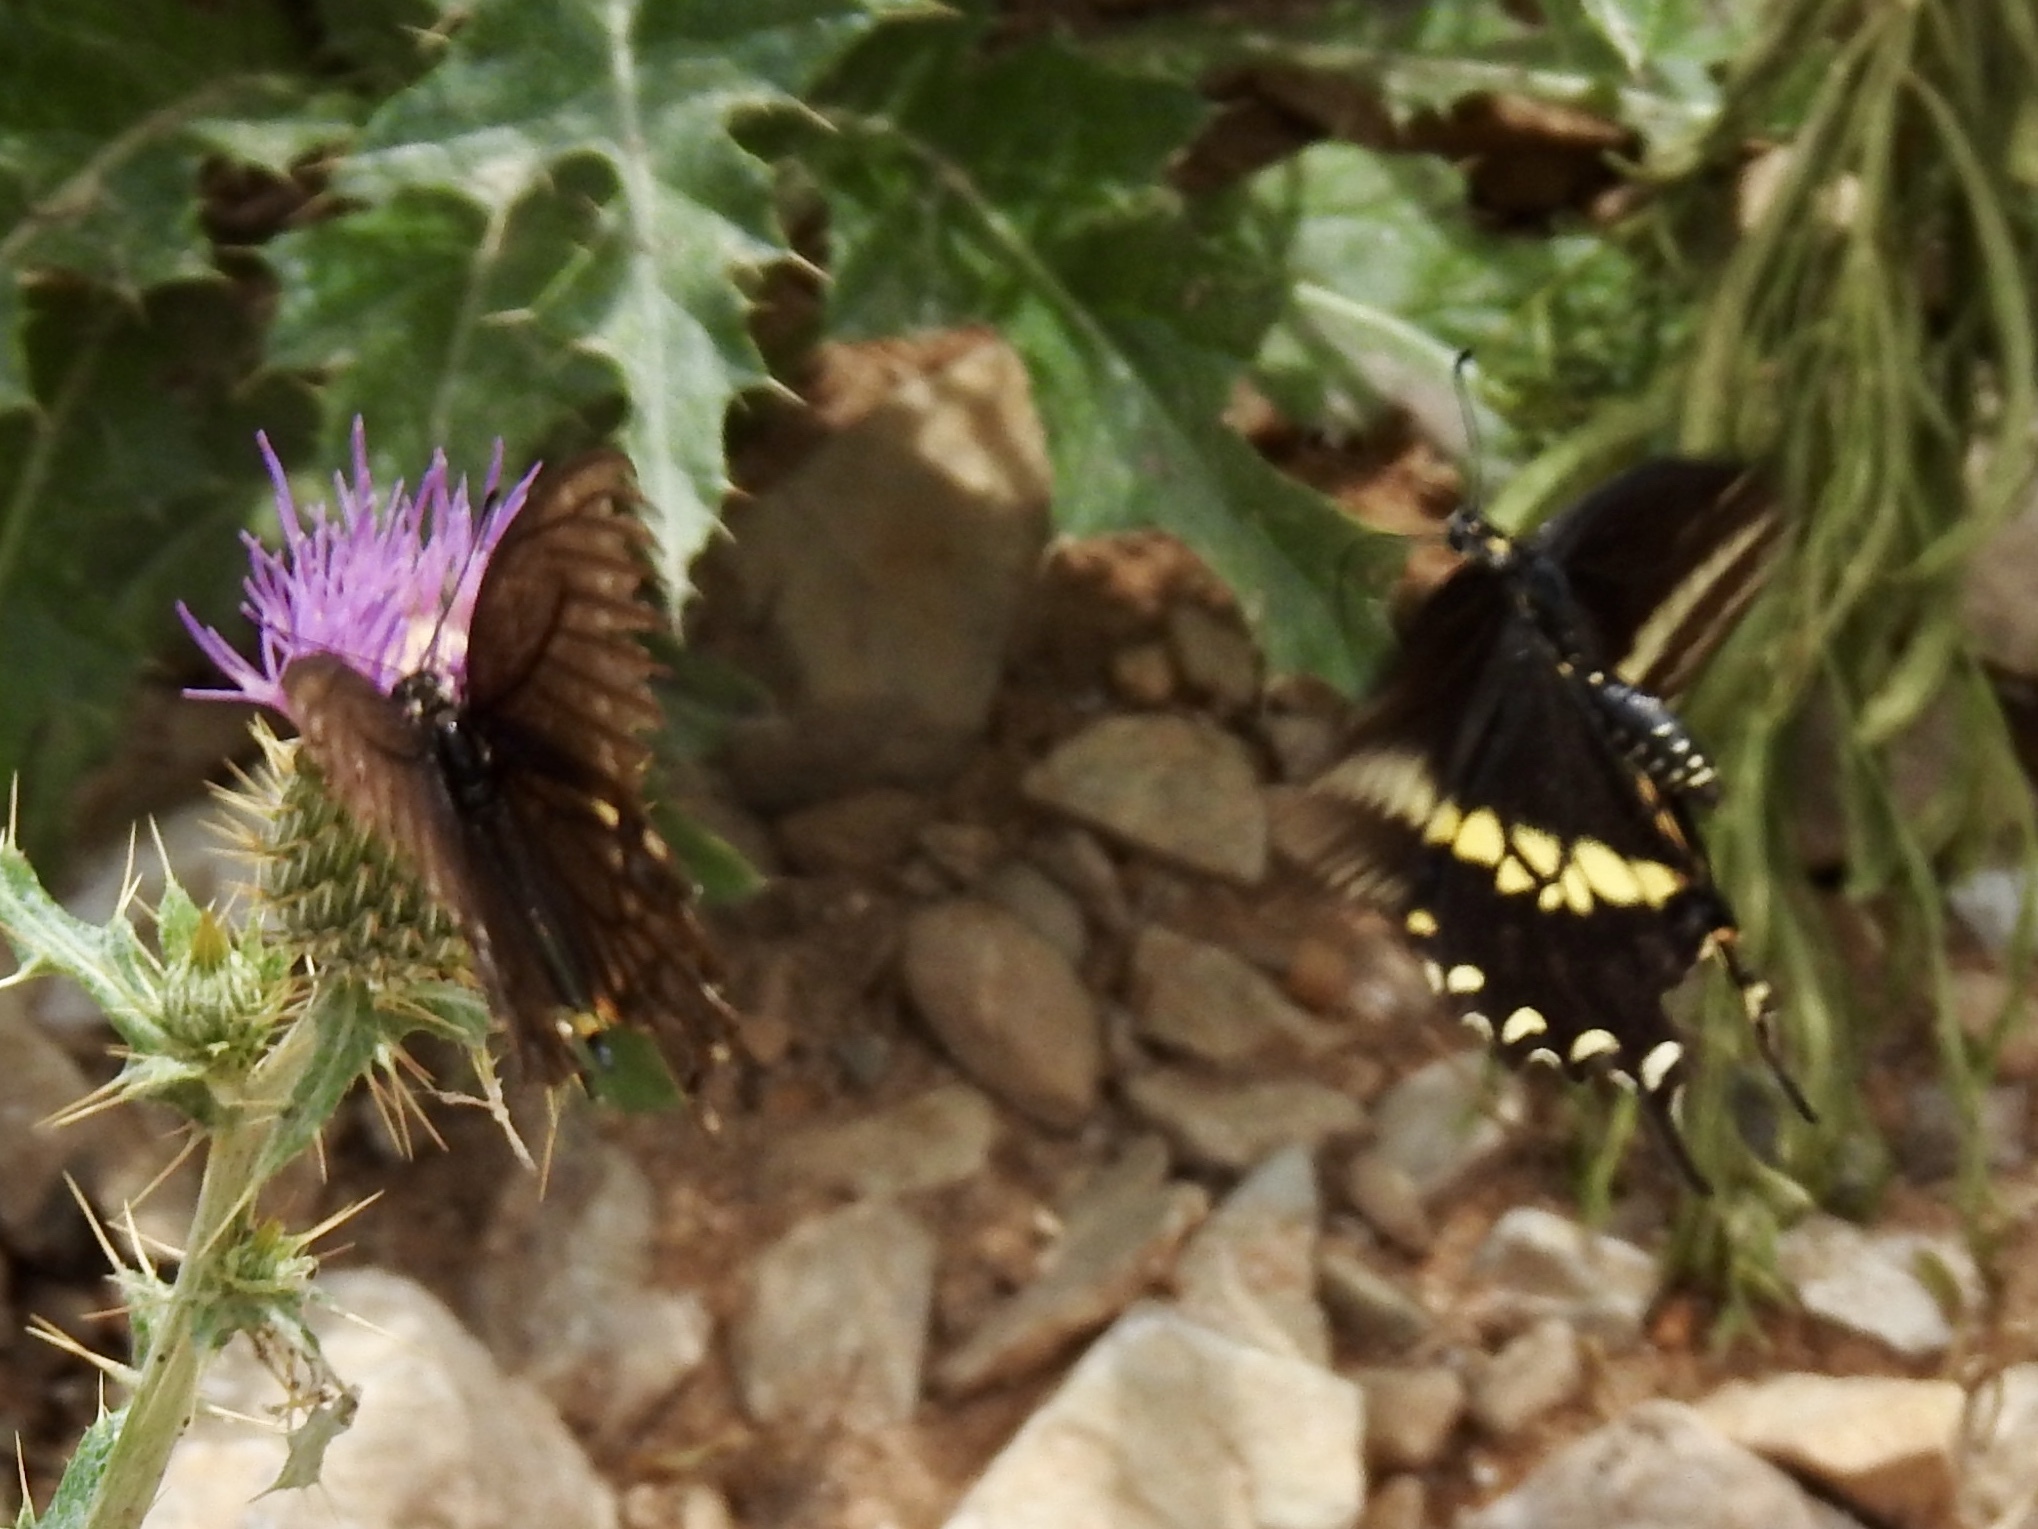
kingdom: Animalia
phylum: Arthropoda
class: Insecta
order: Lepidoptera
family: Papilionidae
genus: Papilio
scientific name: Papilio polyxenes
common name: Black swallowtail
